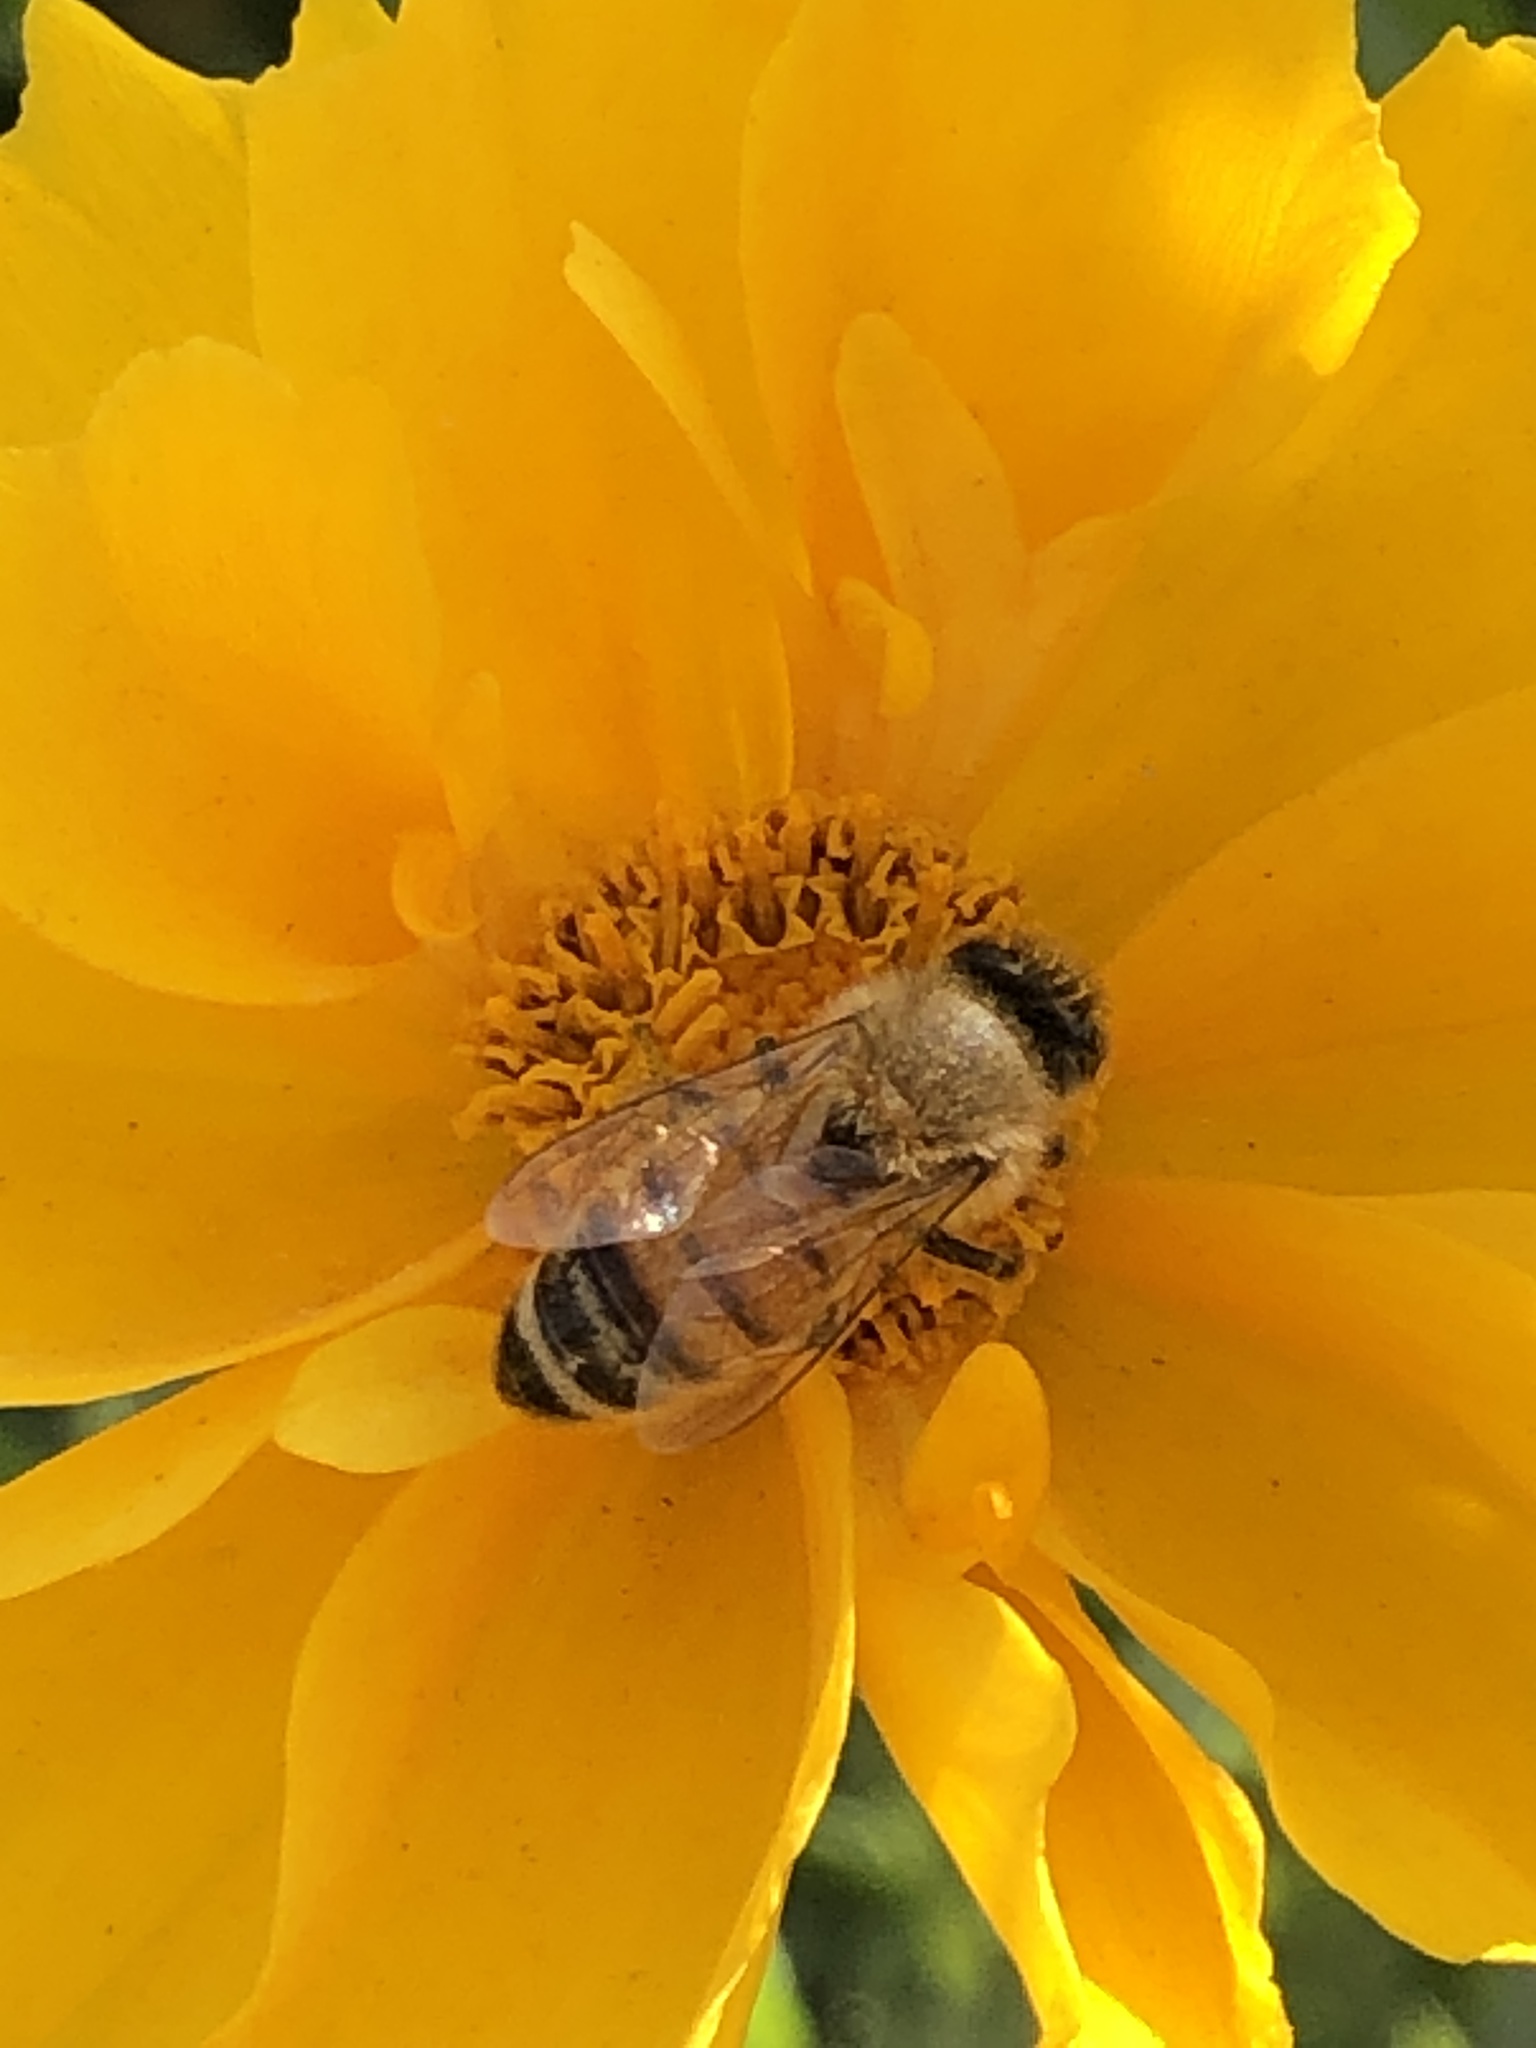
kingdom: Animalia
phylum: Arthropoda
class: Insecta
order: Hymenoptera
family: Apidae
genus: Apis
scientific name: Apis mellifera
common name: Honey bee
